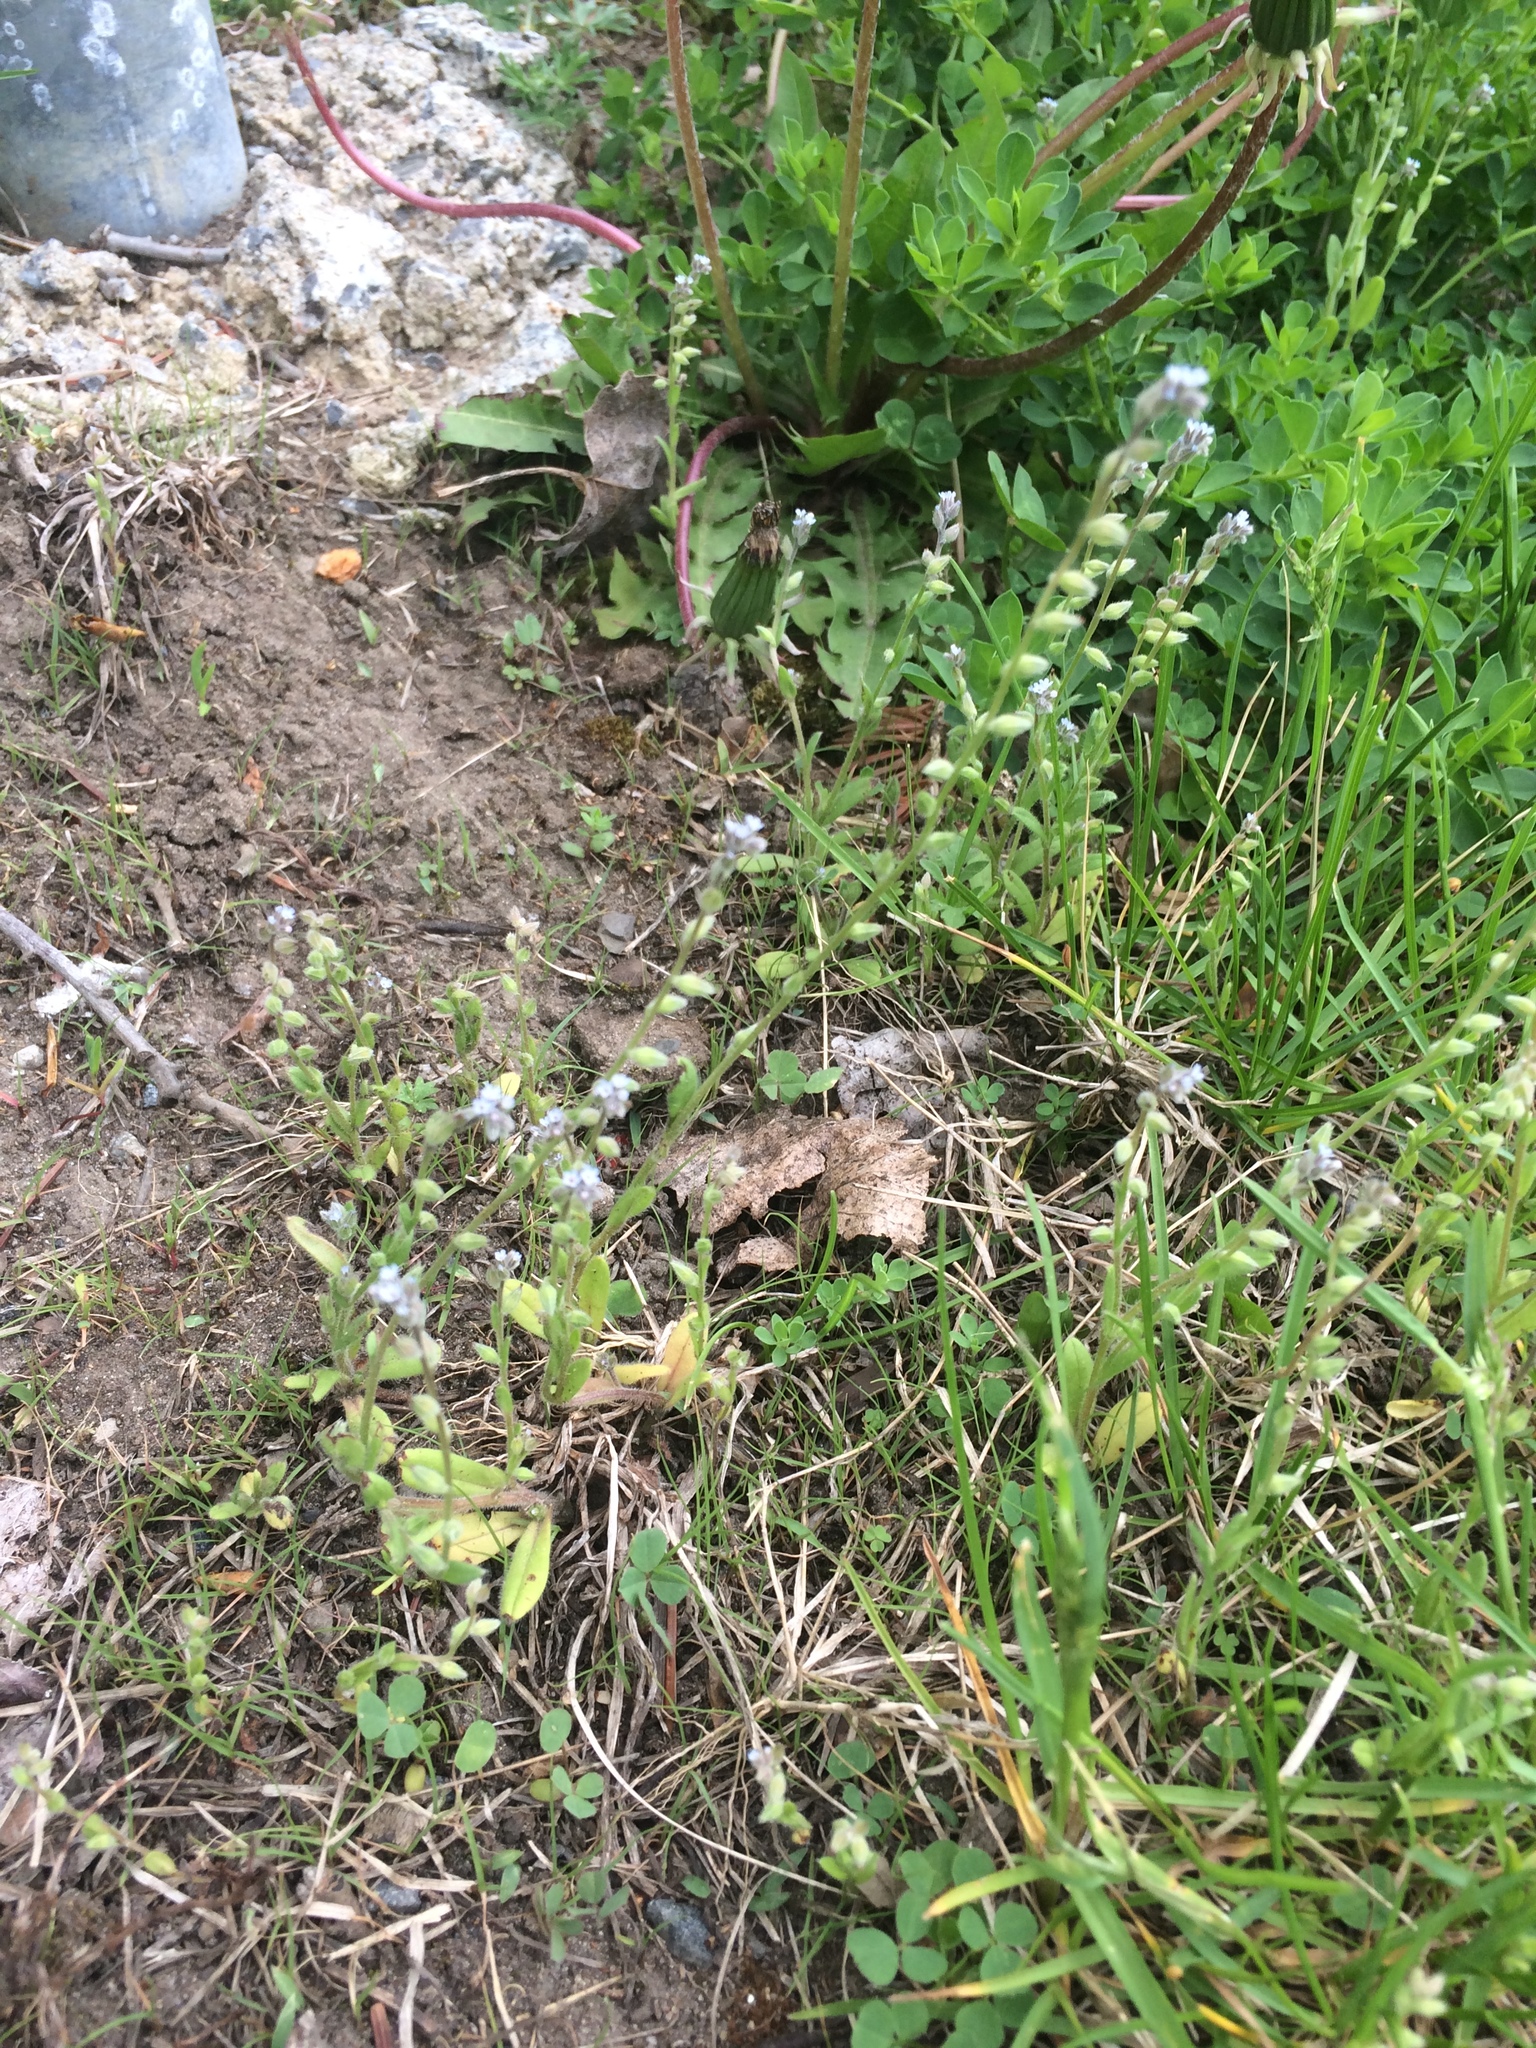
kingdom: Plantae
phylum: Tracheophyta
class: Magnoliopsida
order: Boraginales
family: Boraginaceae
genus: Myosotis
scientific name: Myosotis stricta
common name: Strict forget-me-not
